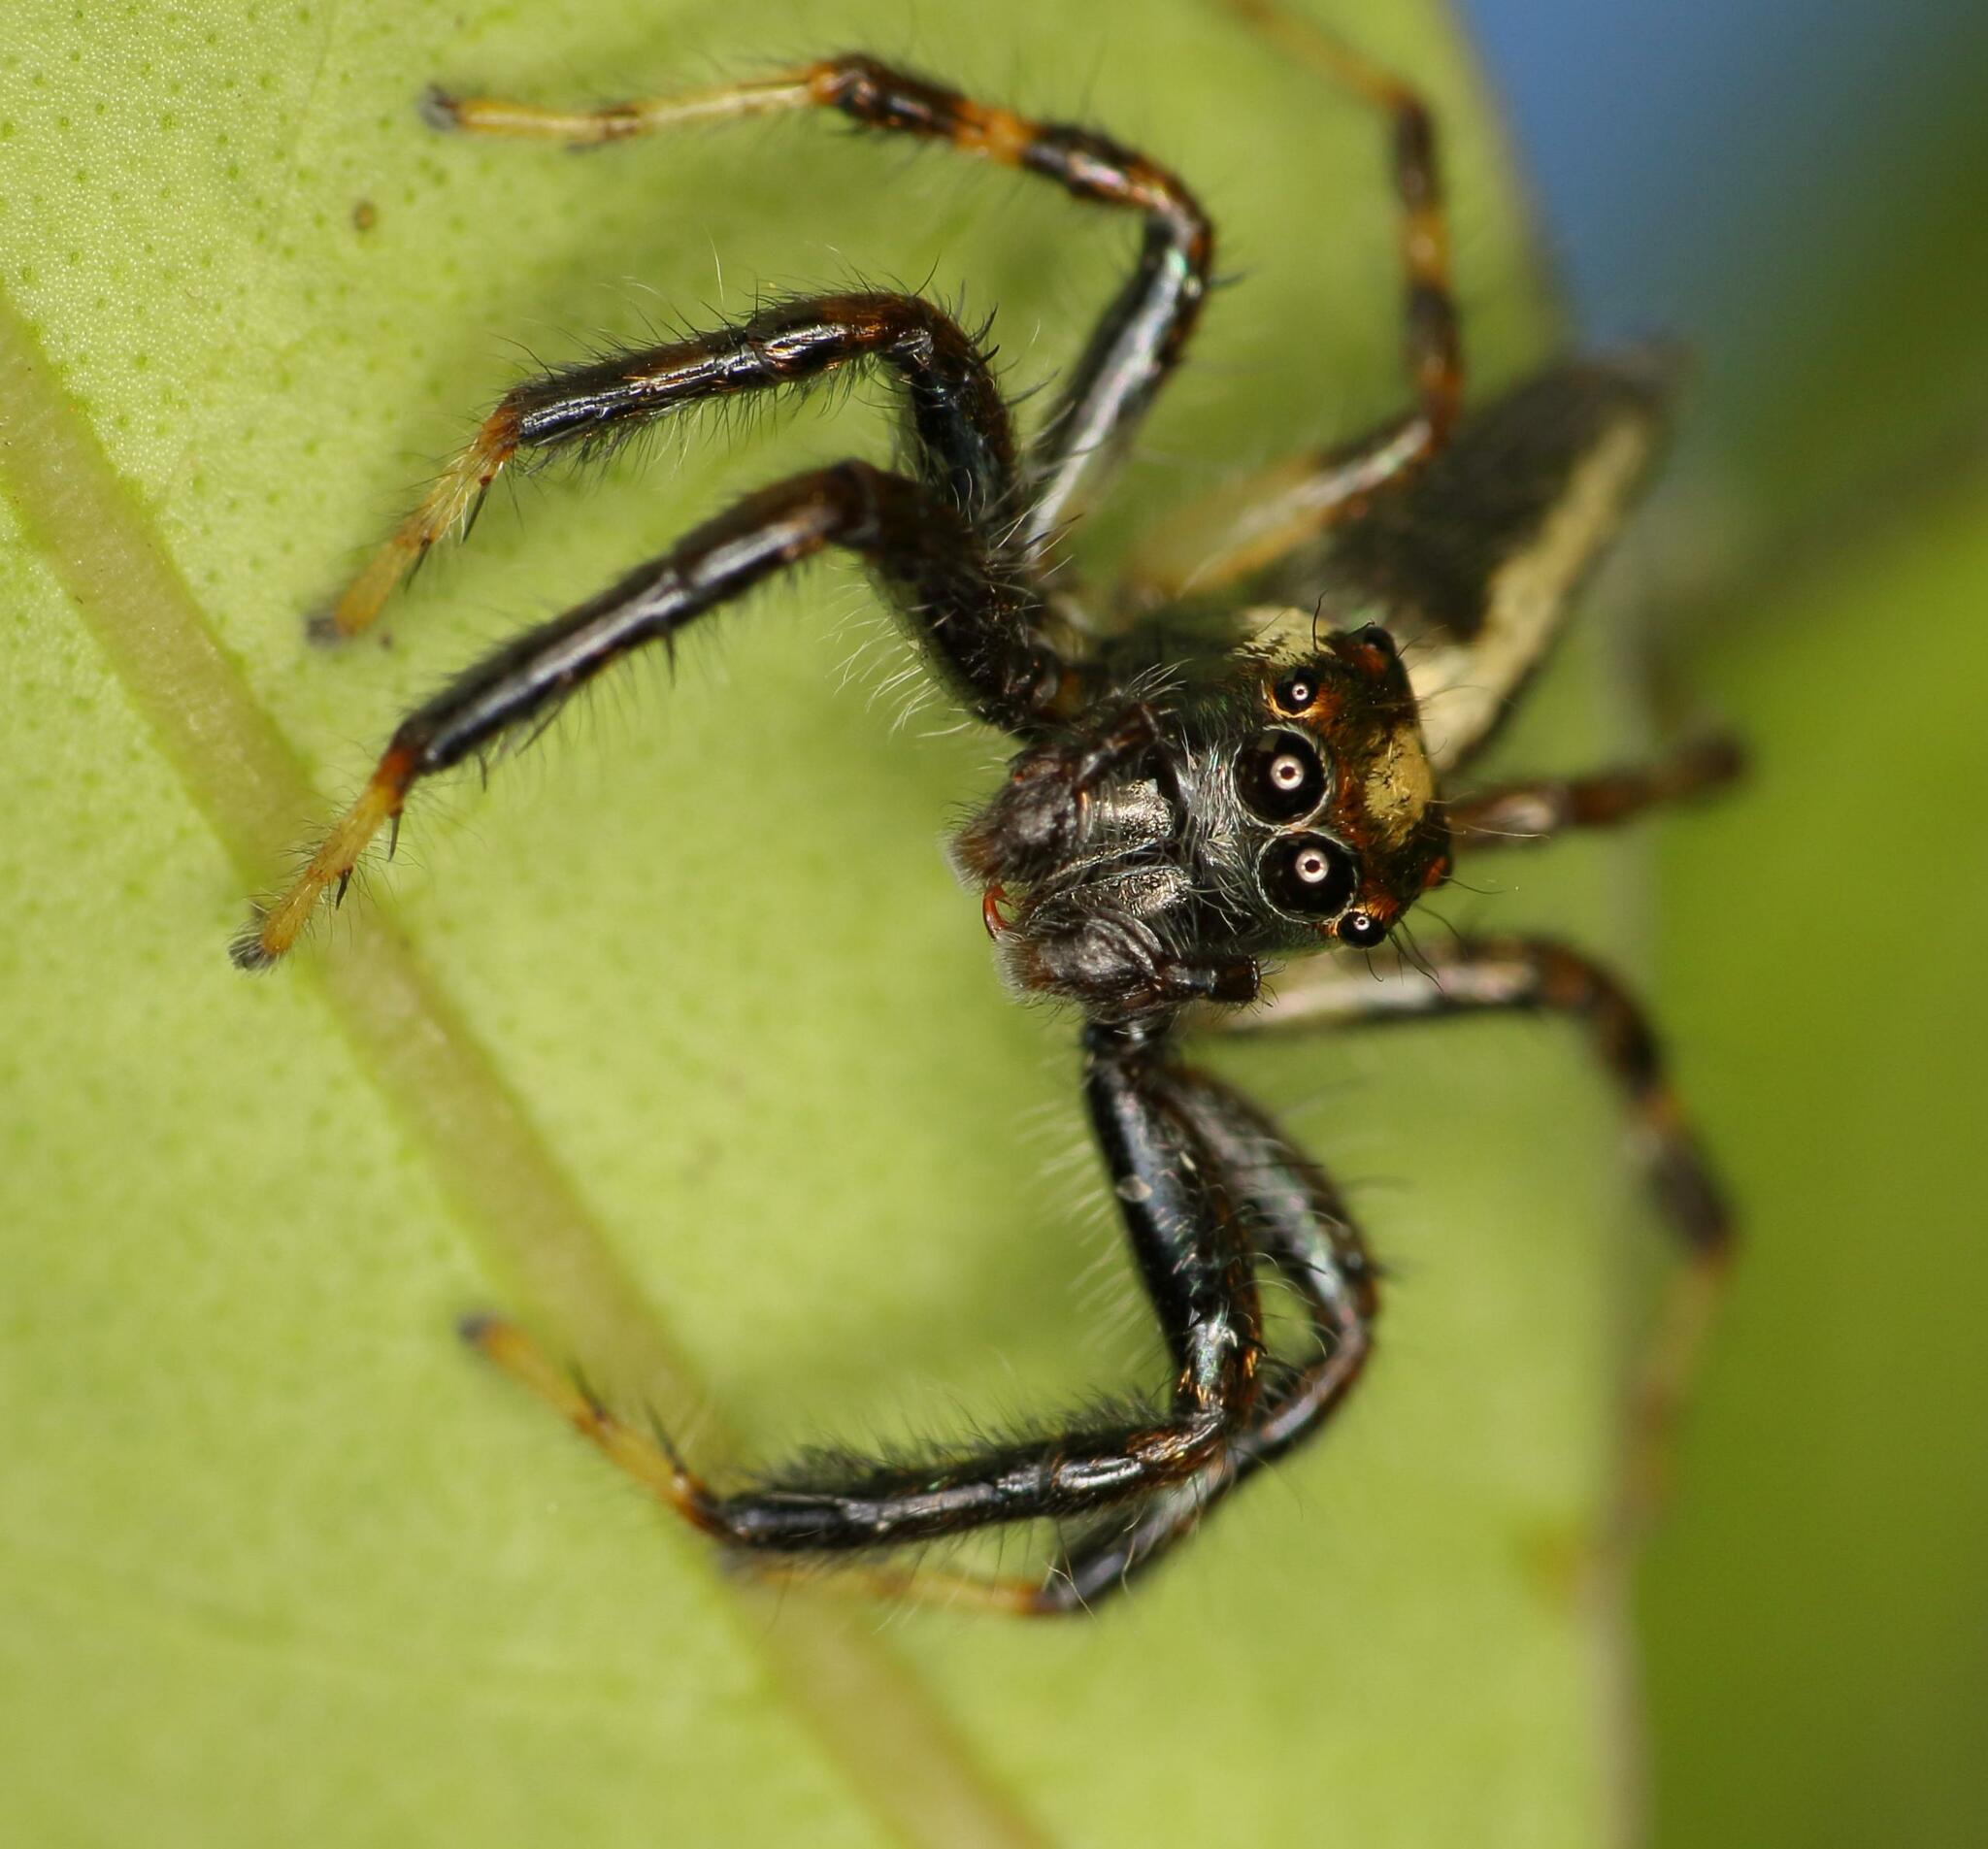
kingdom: Animalia
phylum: Arthropoda
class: Arachnida
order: Araneae
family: Salticidae
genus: Brancus
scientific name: Brancus mustelus
